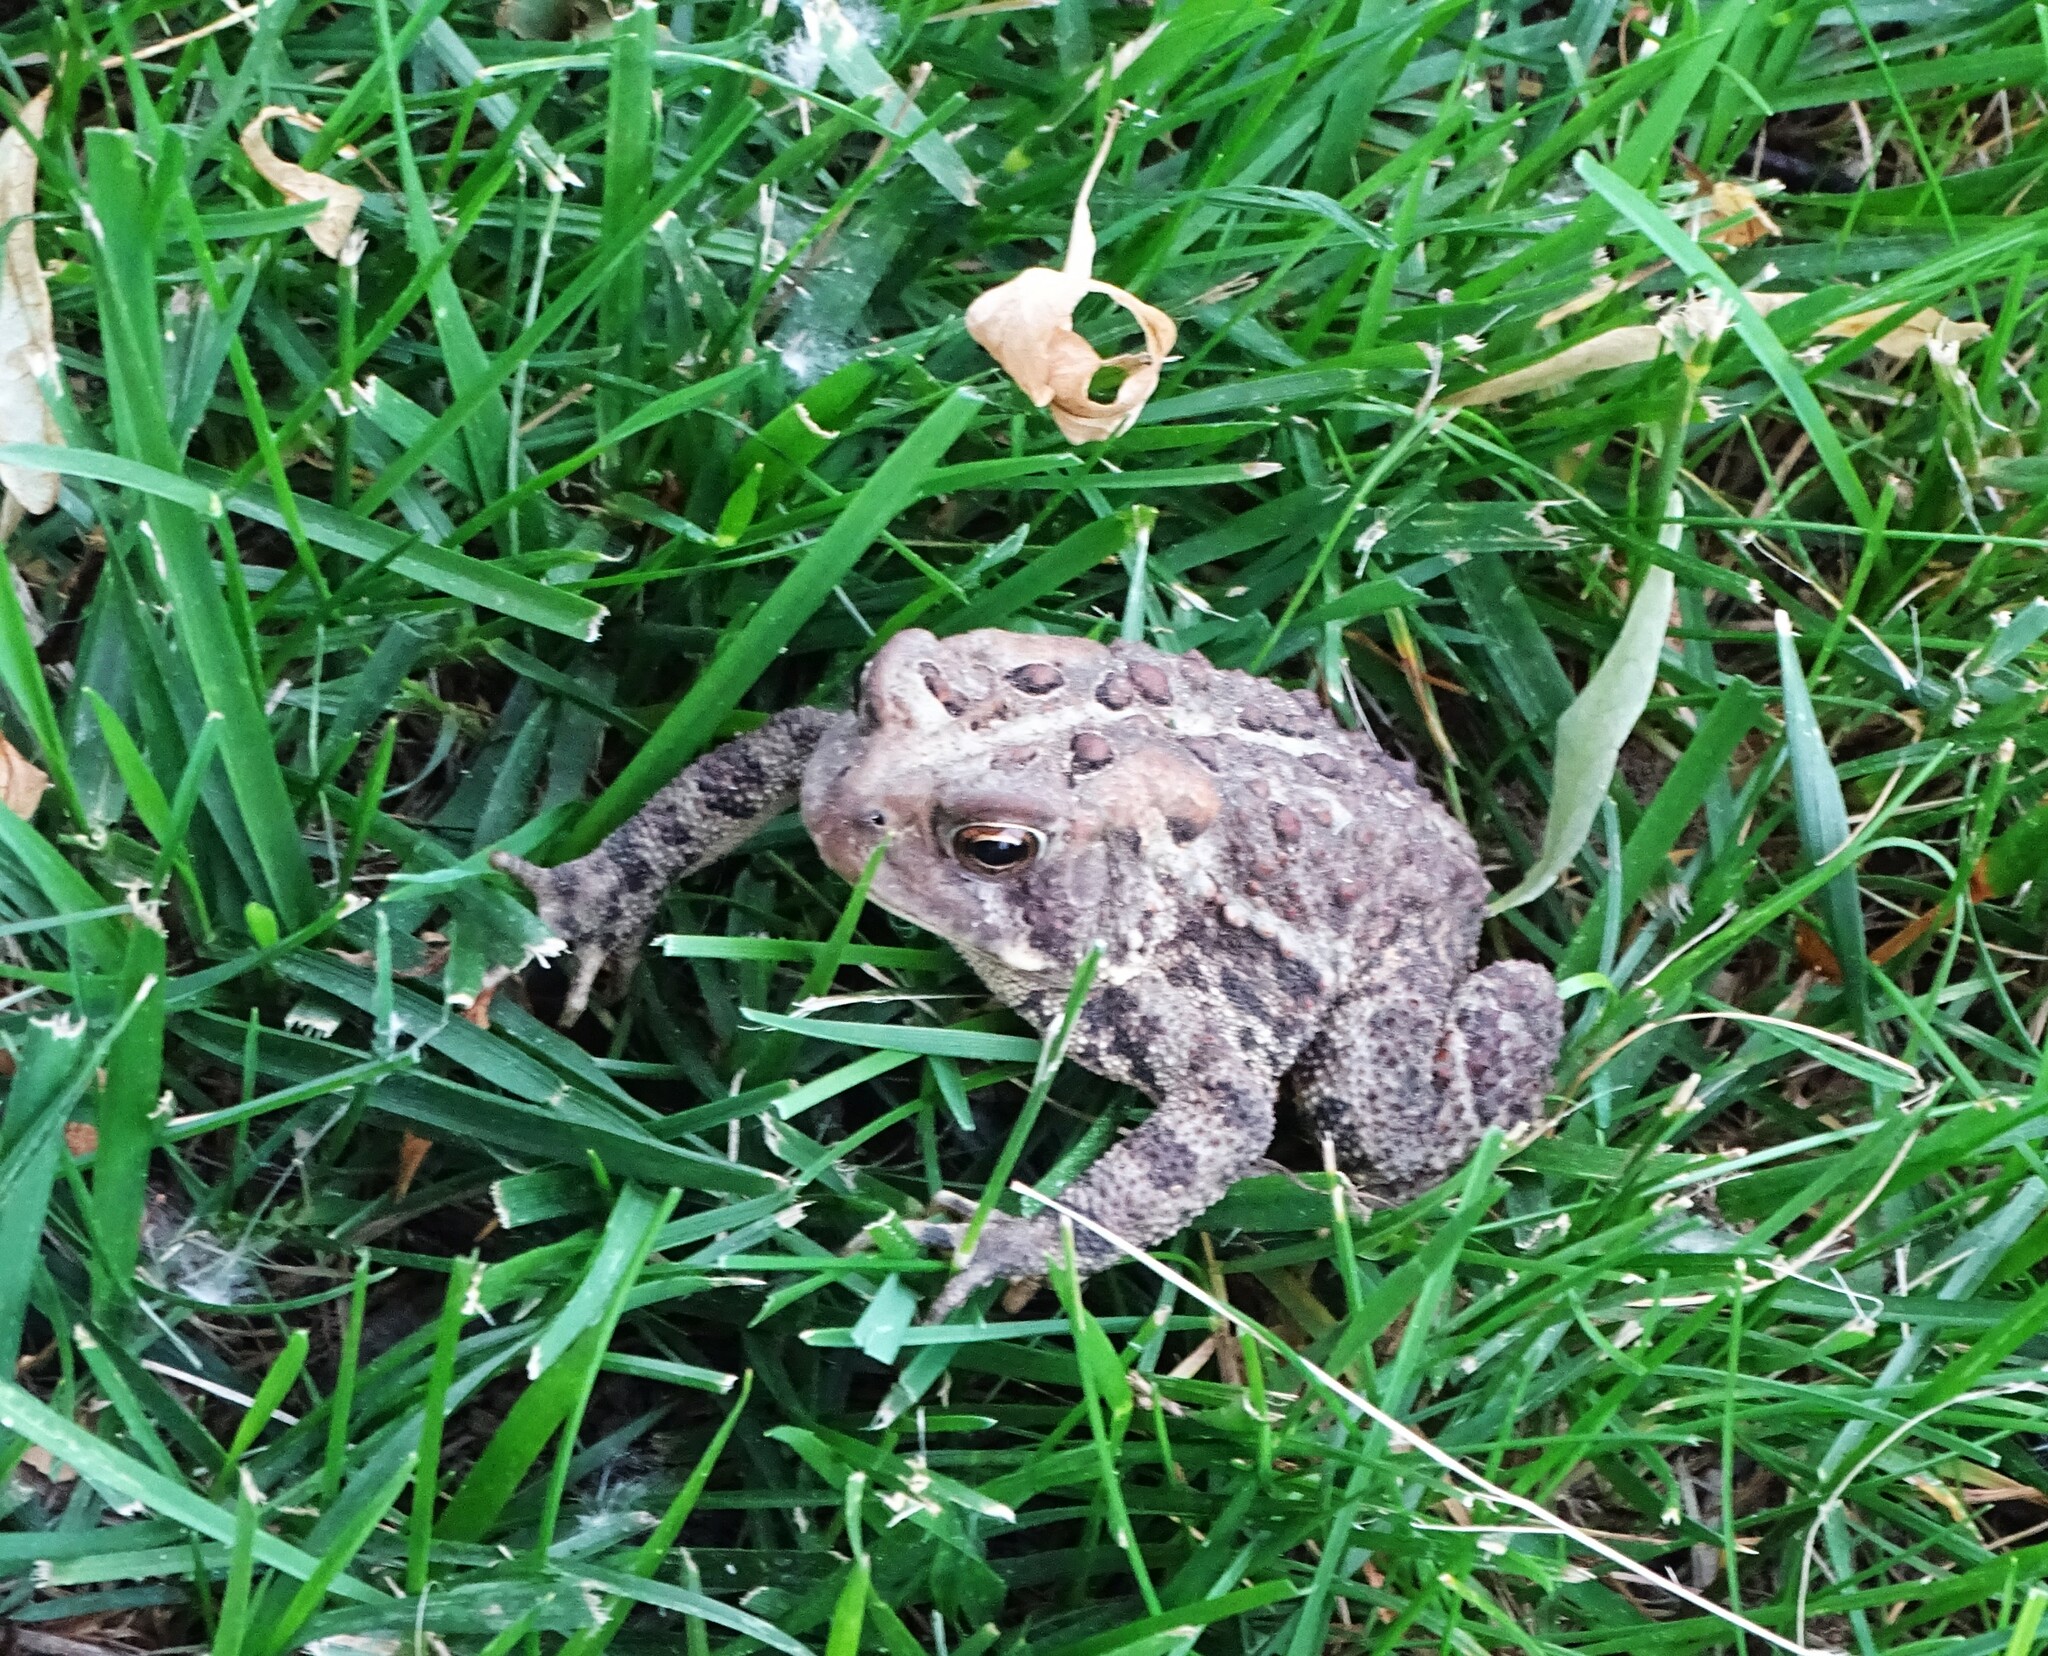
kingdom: Animalia
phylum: Chordata
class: Amphibia
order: Anura
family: Bufonidae
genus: Anaxyrus
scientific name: Anaxyrus americanus
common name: American toad
